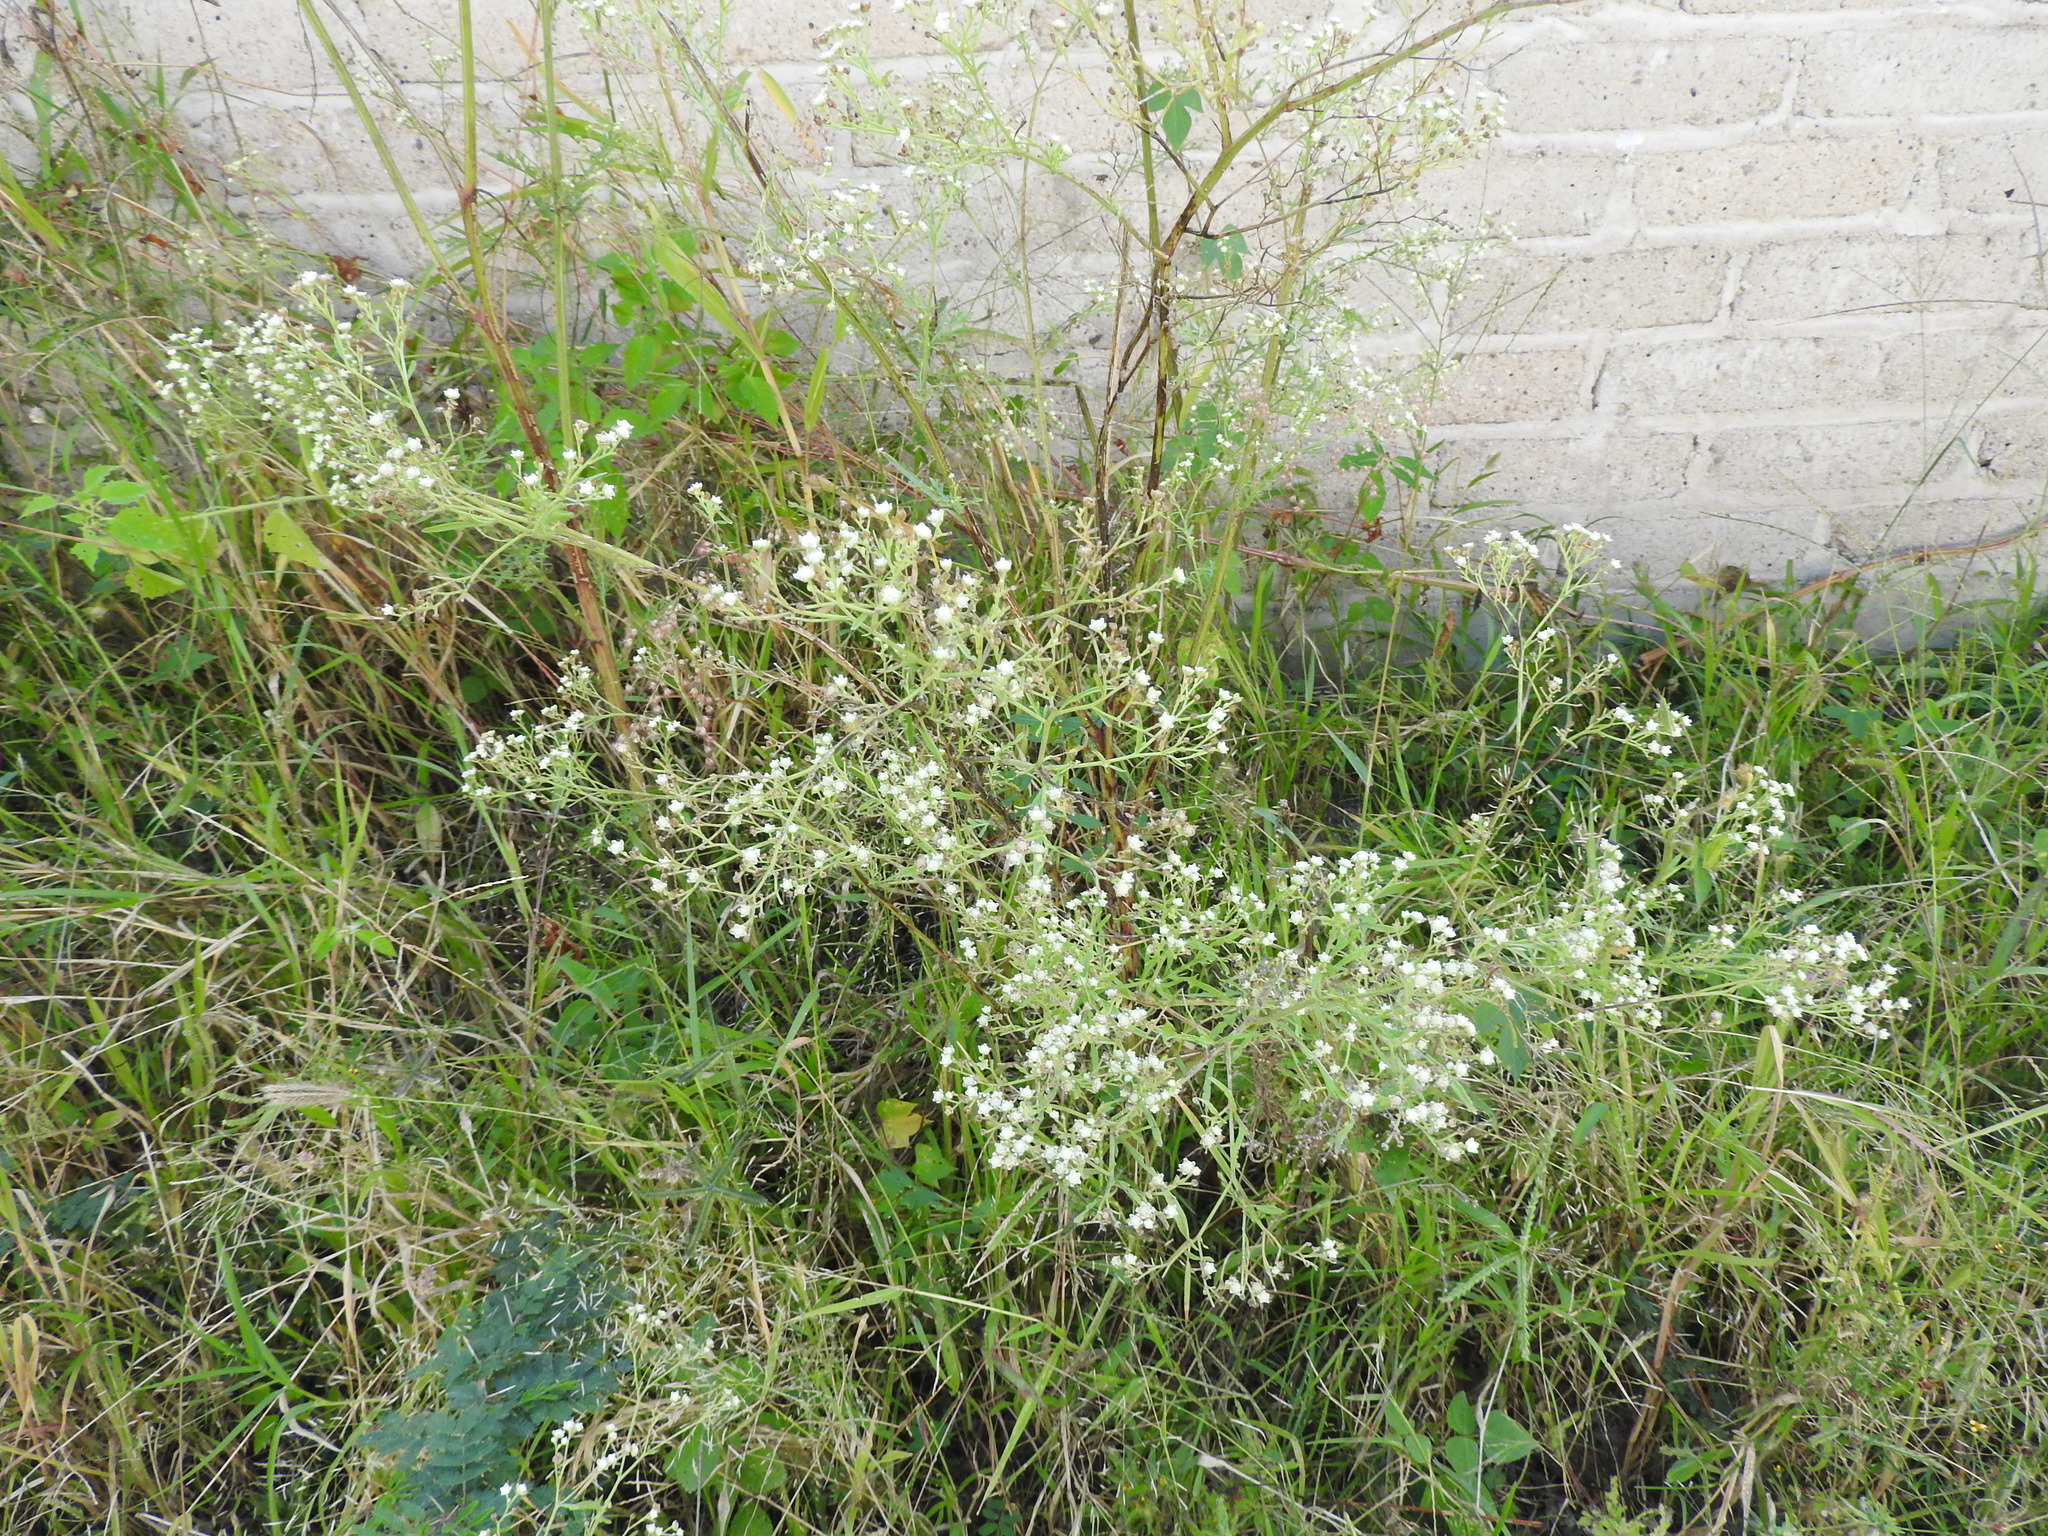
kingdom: Plantae
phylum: Tracheophyta
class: Magnoliopsida
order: Asterales
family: Asteraceae
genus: Parthenium
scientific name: Parthenium hysterophorus
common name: Santa maria feverfew
